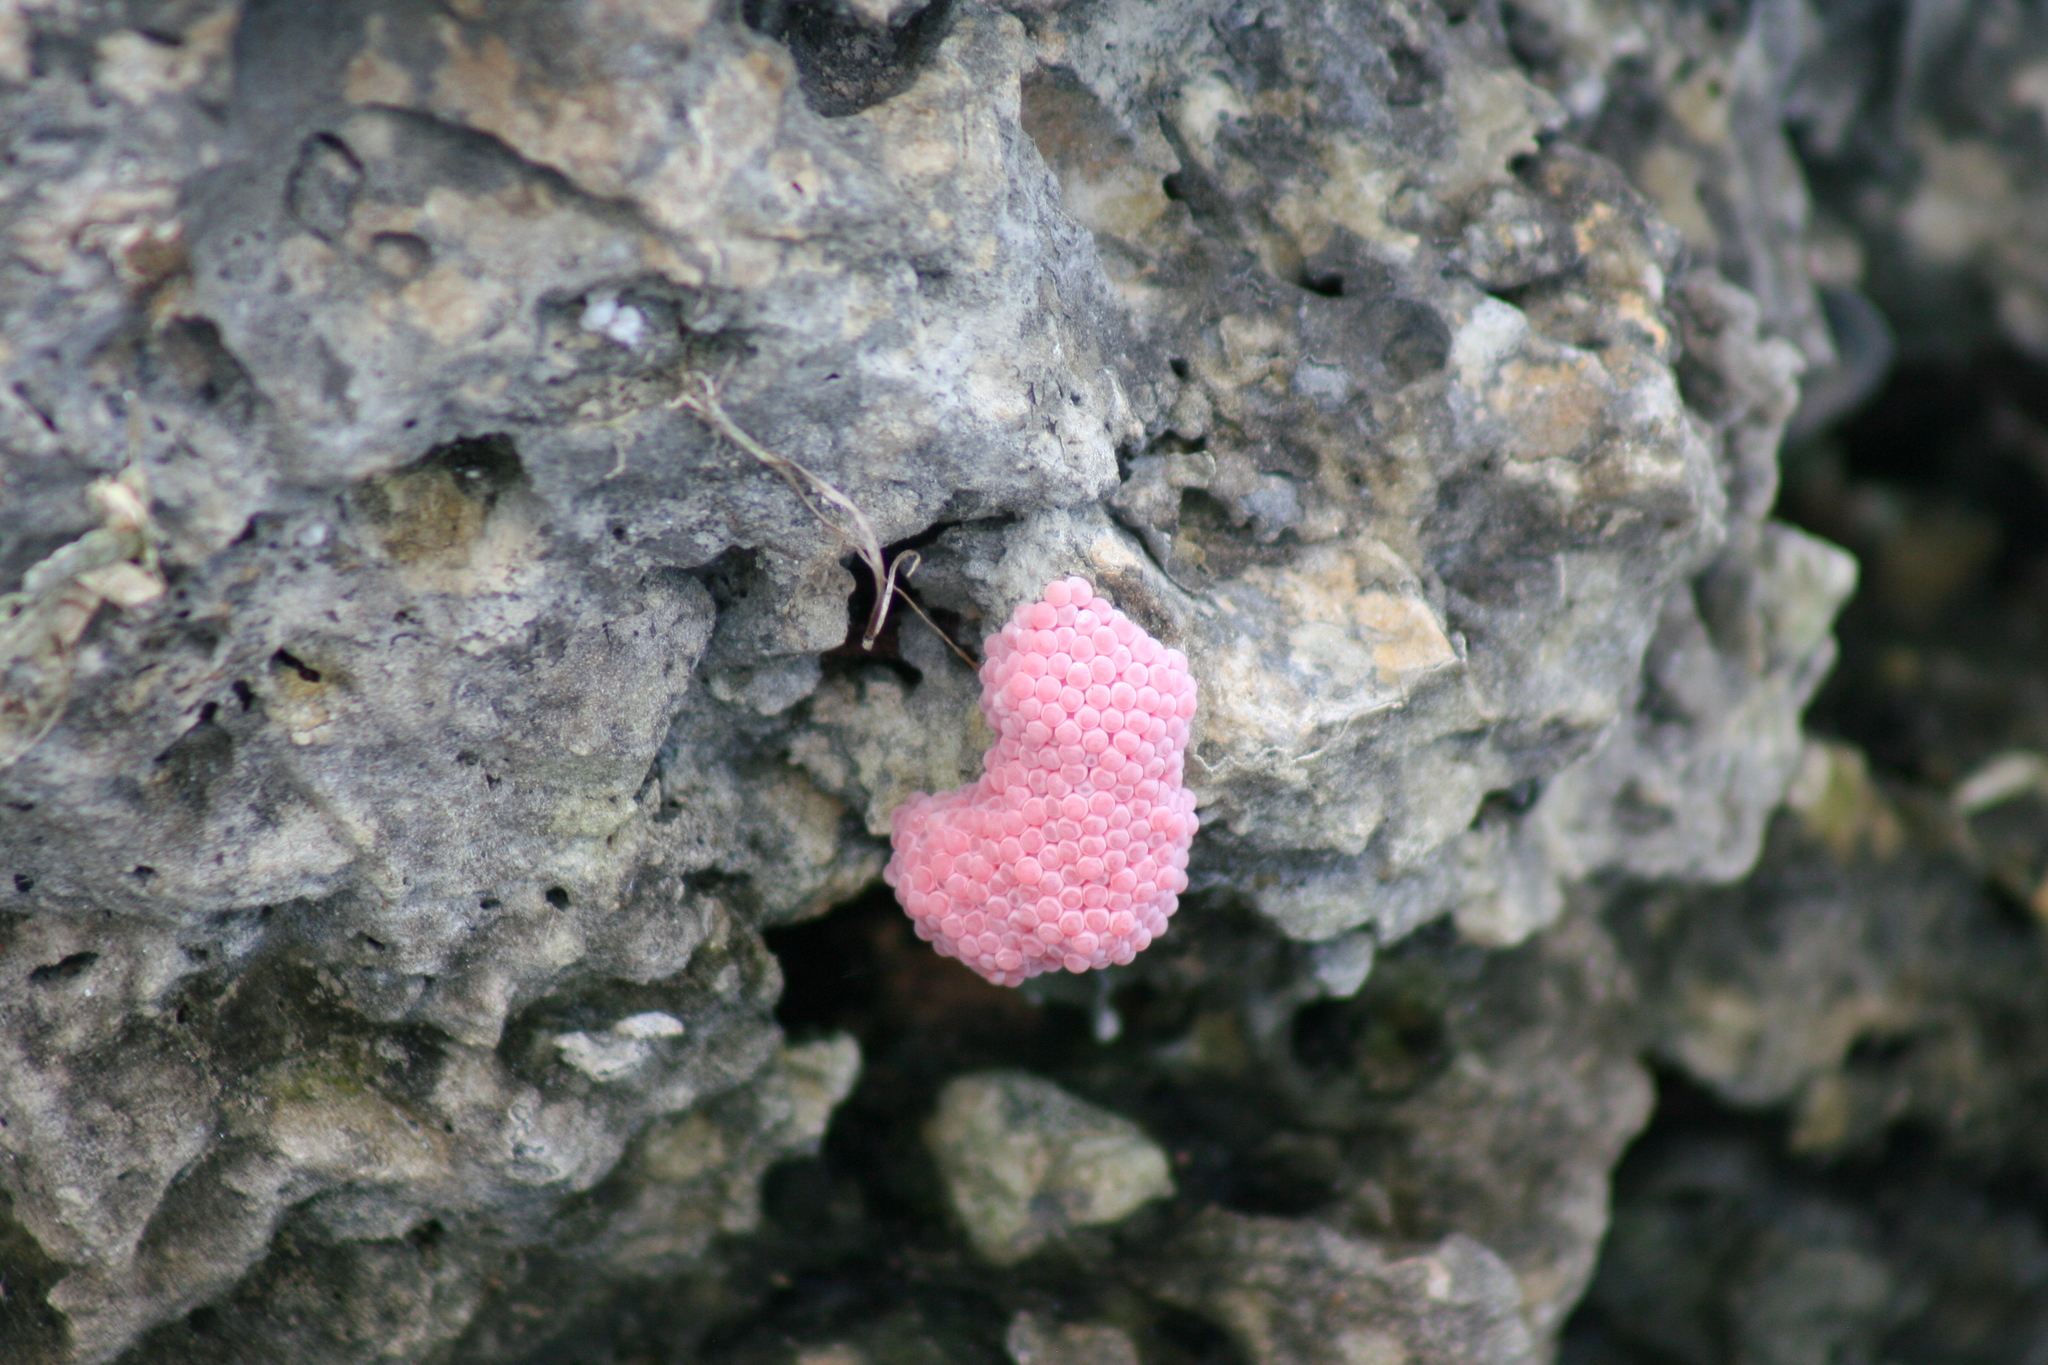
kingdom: Animalia
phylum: Mollusca
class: Gastropoda
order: Architaenioglossa
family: Ampullariidae
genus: Pomacea
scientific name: Pomacea canaliculata
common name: Channeled applesnail
